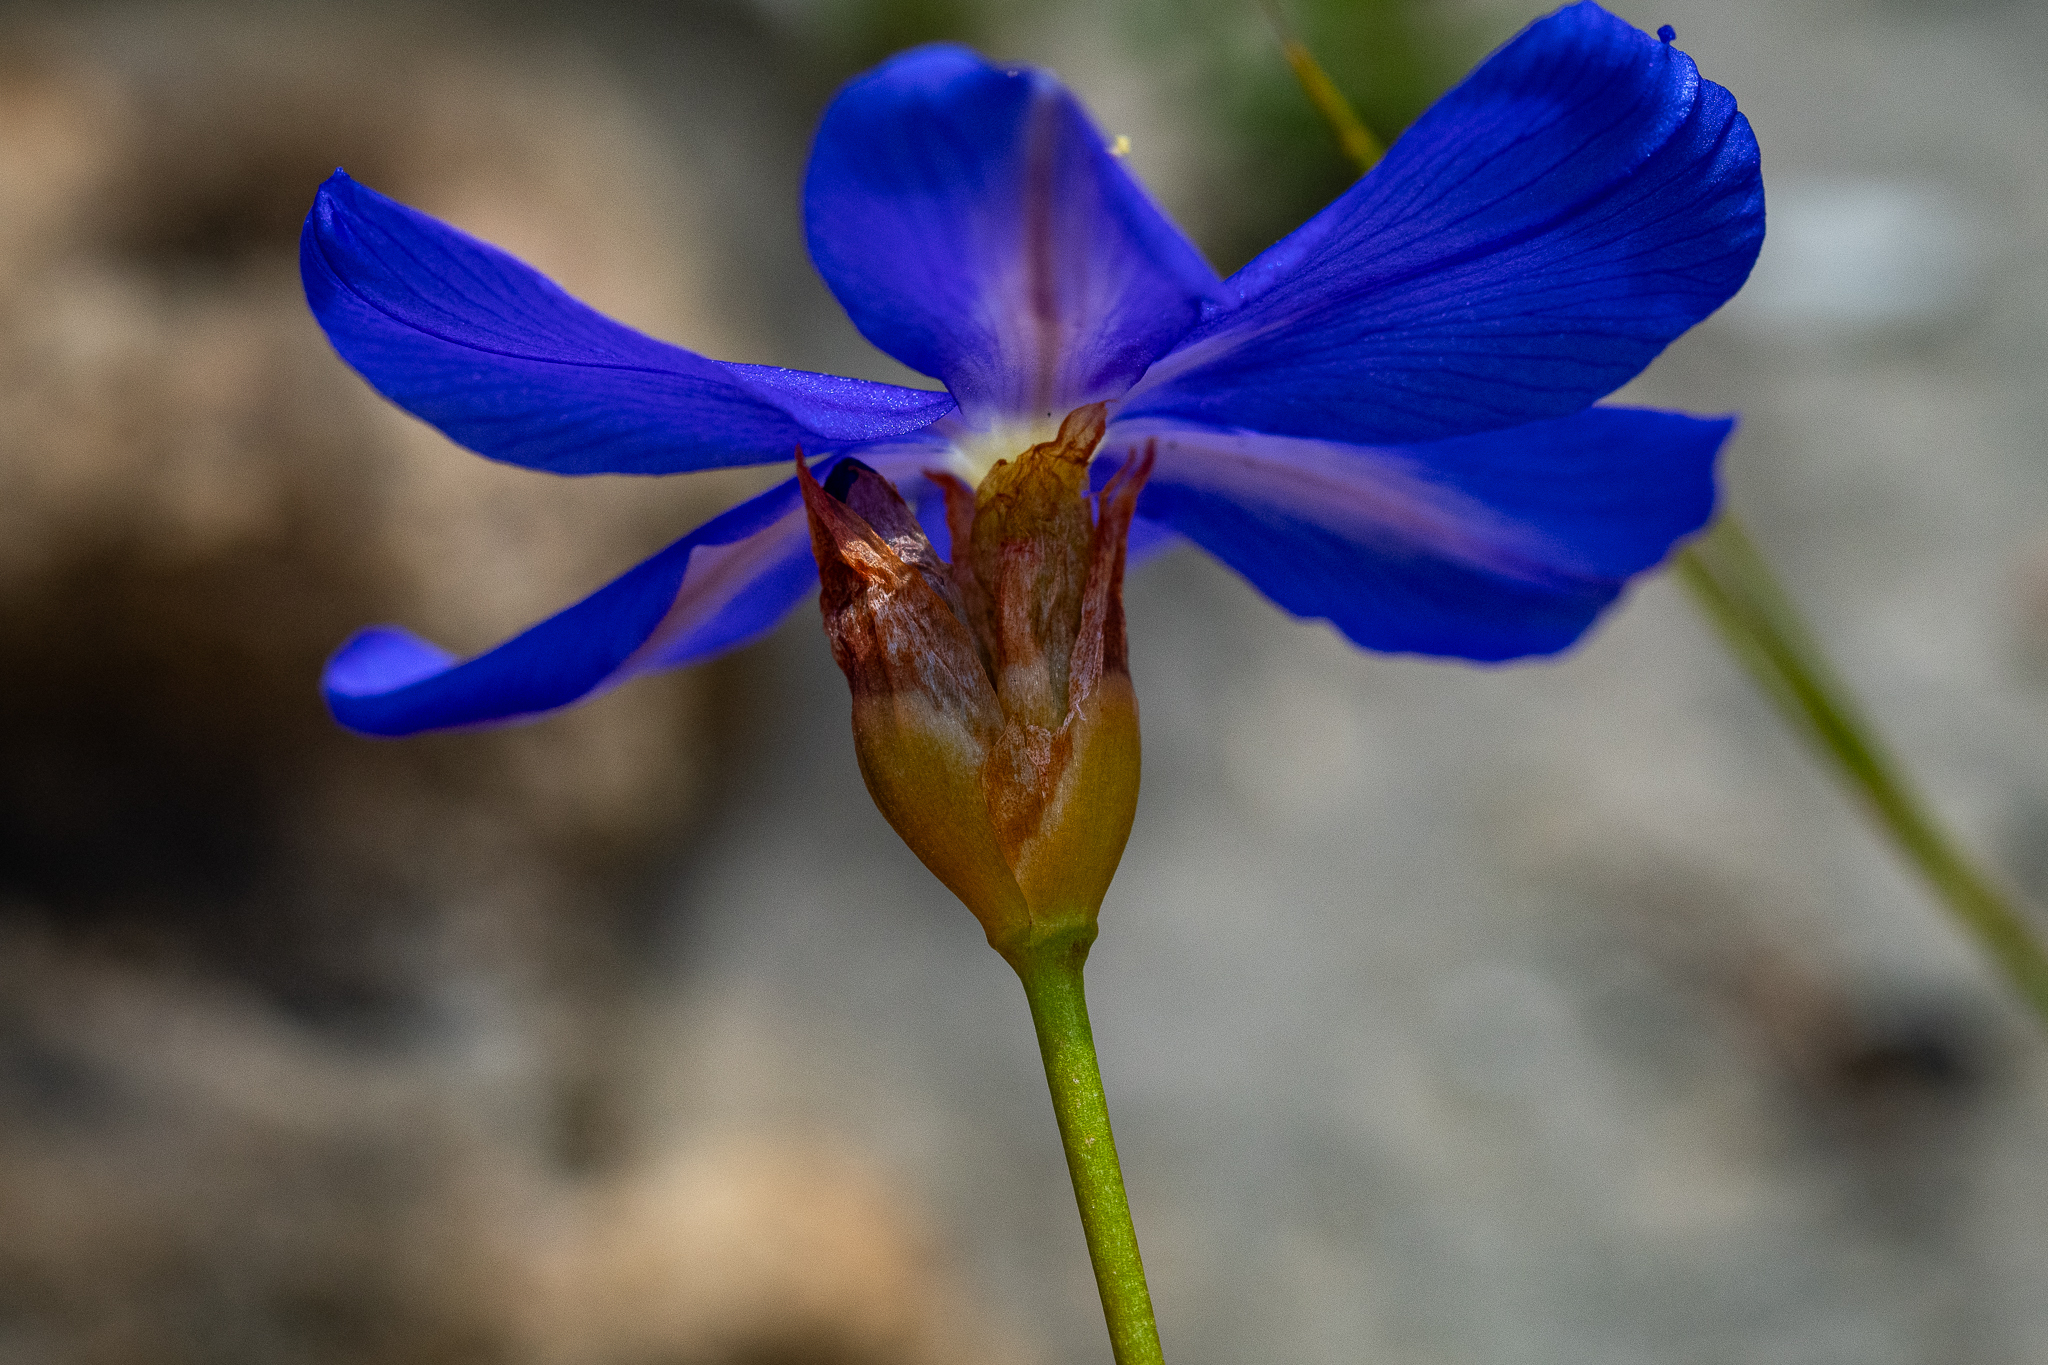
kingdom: Plantae
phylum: Tracheophyta
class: Liliopsida
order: Asparagales
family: Iridaceae
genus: Aristea
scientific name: Aristea juncifolia
